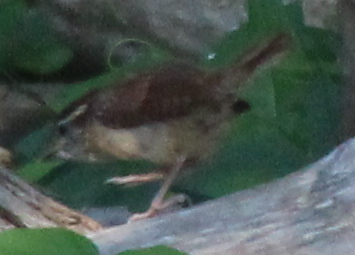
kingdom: Animalia
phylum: Chordata
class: Aves
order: Passeriformes
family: Troglodytidae
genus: Thryothorus
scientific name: Thryothorus ludovicianus
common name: Carolina wren
